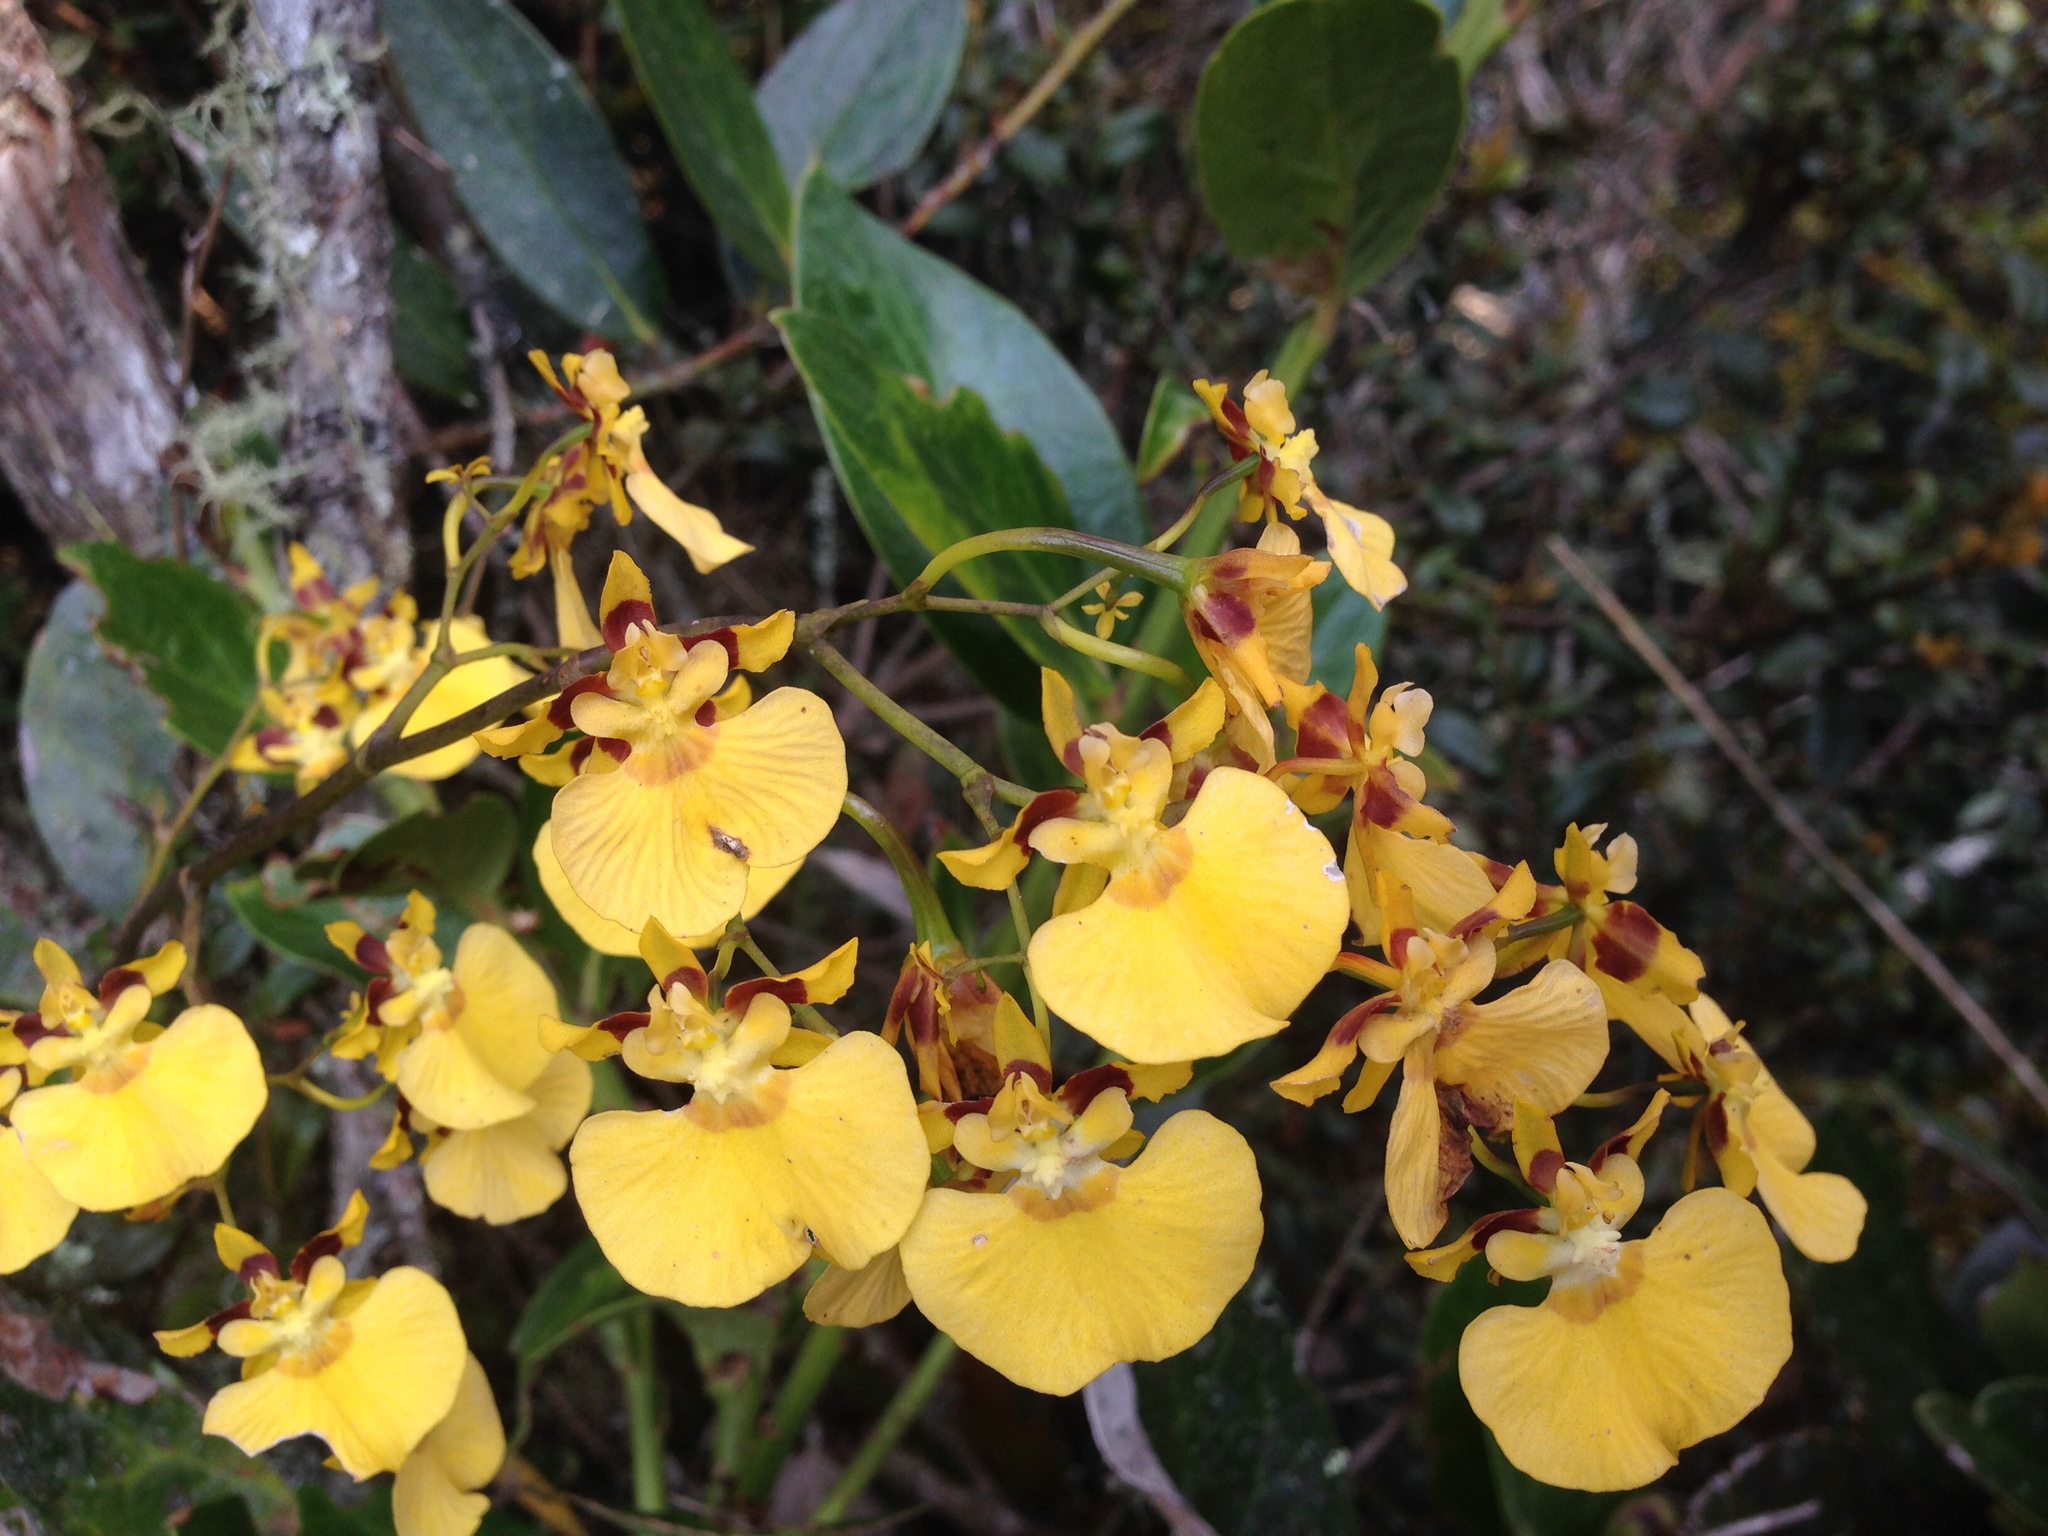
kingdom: Plantae
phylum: Tracheophyta
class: Liliopsida
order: Asparagales
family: Orchidaceae
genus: Oncidium
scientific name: Oncidium cultratum
